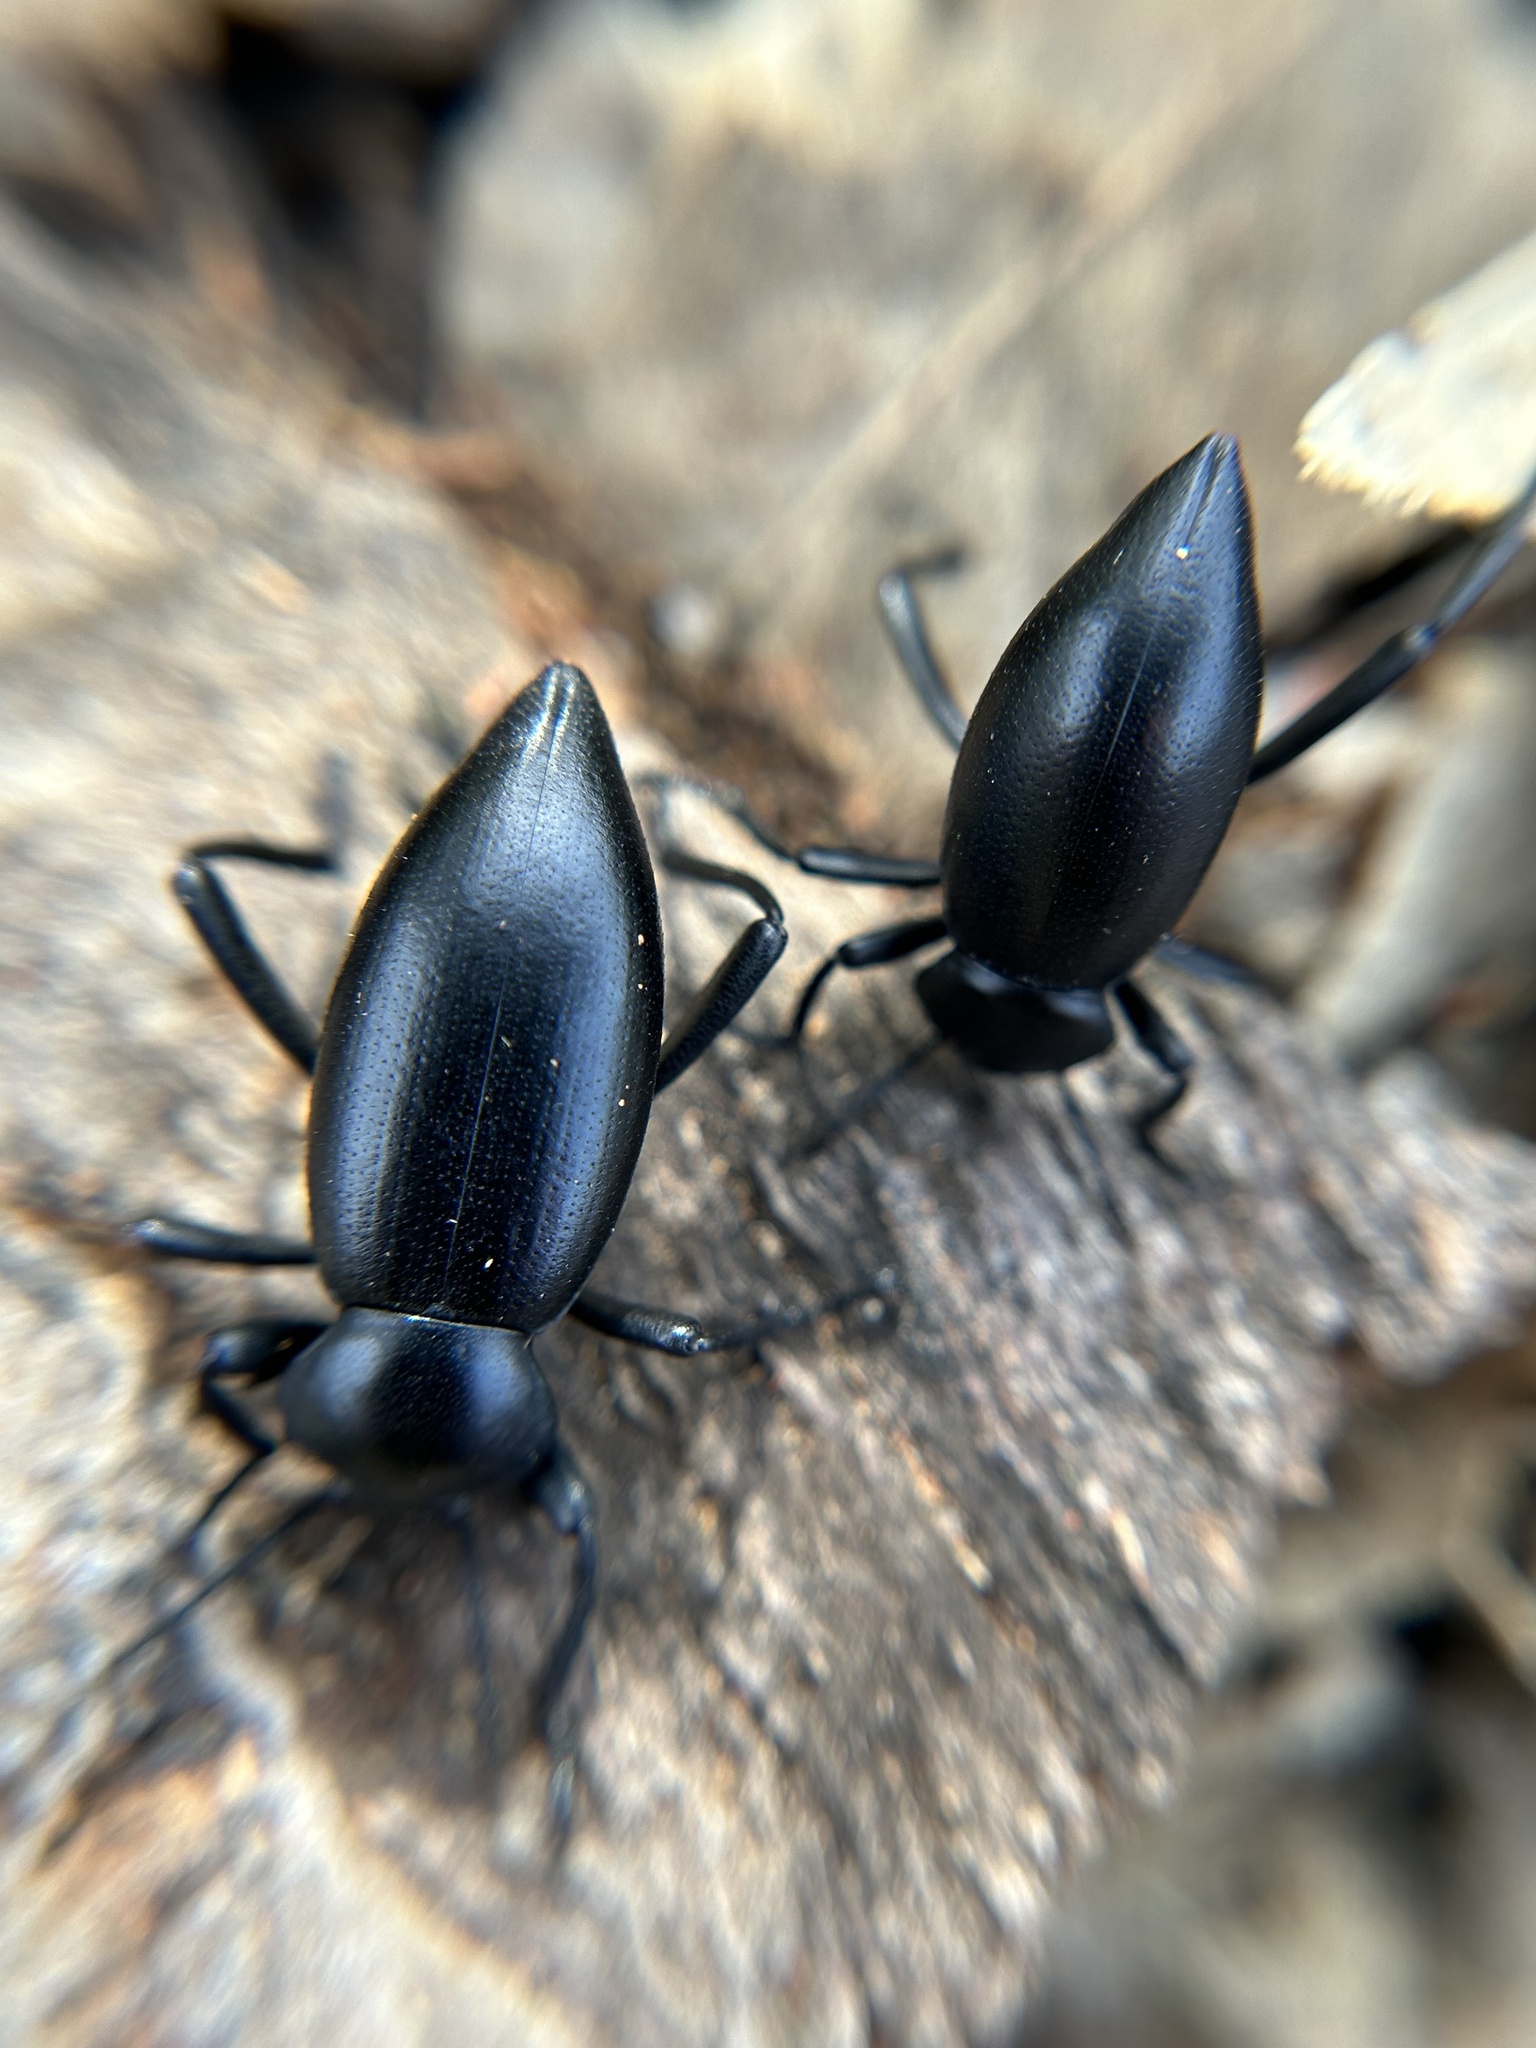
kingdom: Animalia
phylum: Arthropoda
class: Insecta
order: Coleoptera
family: Tenebrionidae
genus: Eleodes
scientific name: Eleodes acuticauda
